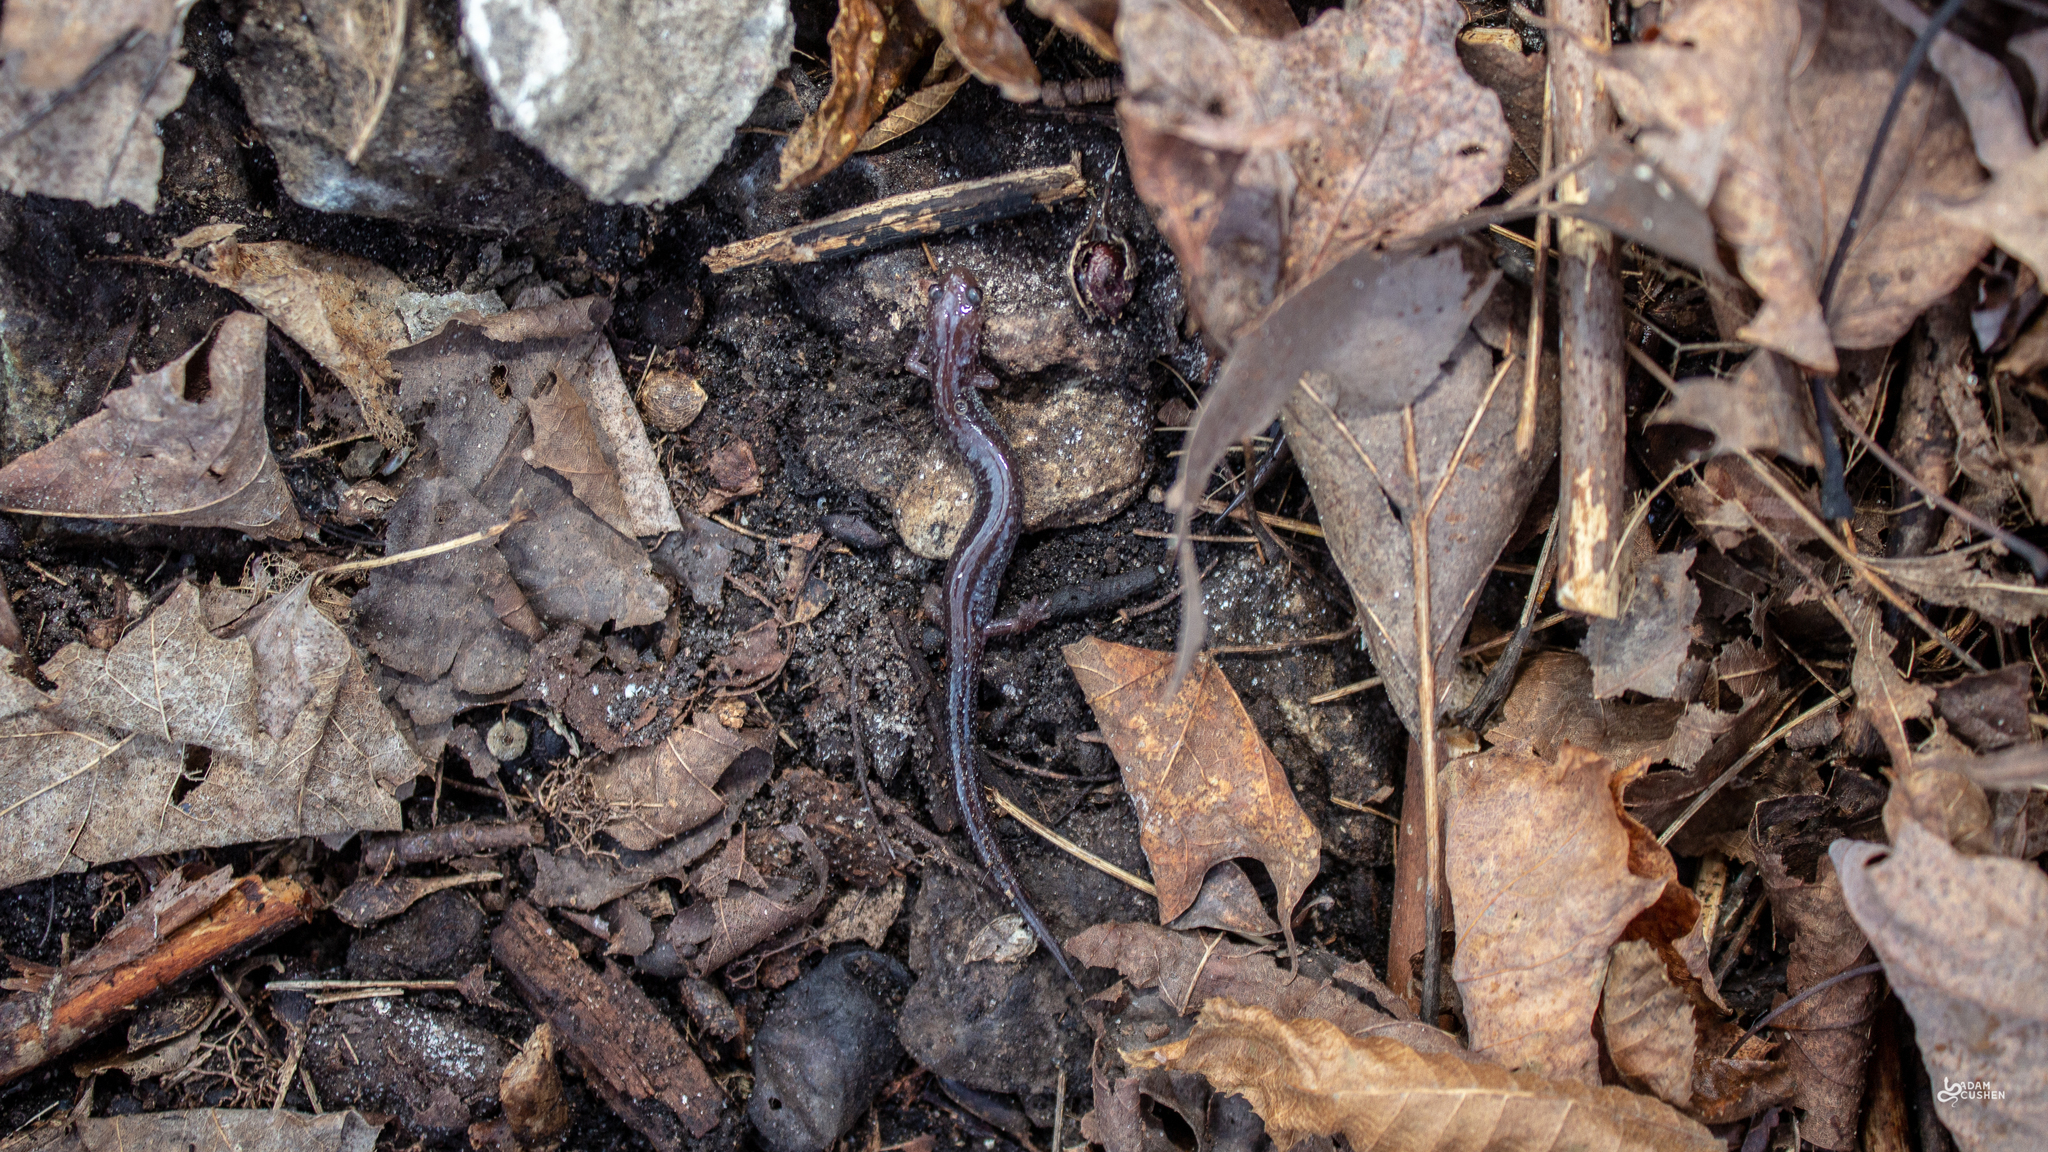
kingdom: Animalia
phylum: Chordata
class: Amphibia
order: Caudata
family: Plethodontidae
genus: Plethodon
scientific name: Plethodon cinereus
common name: Redback salamander
